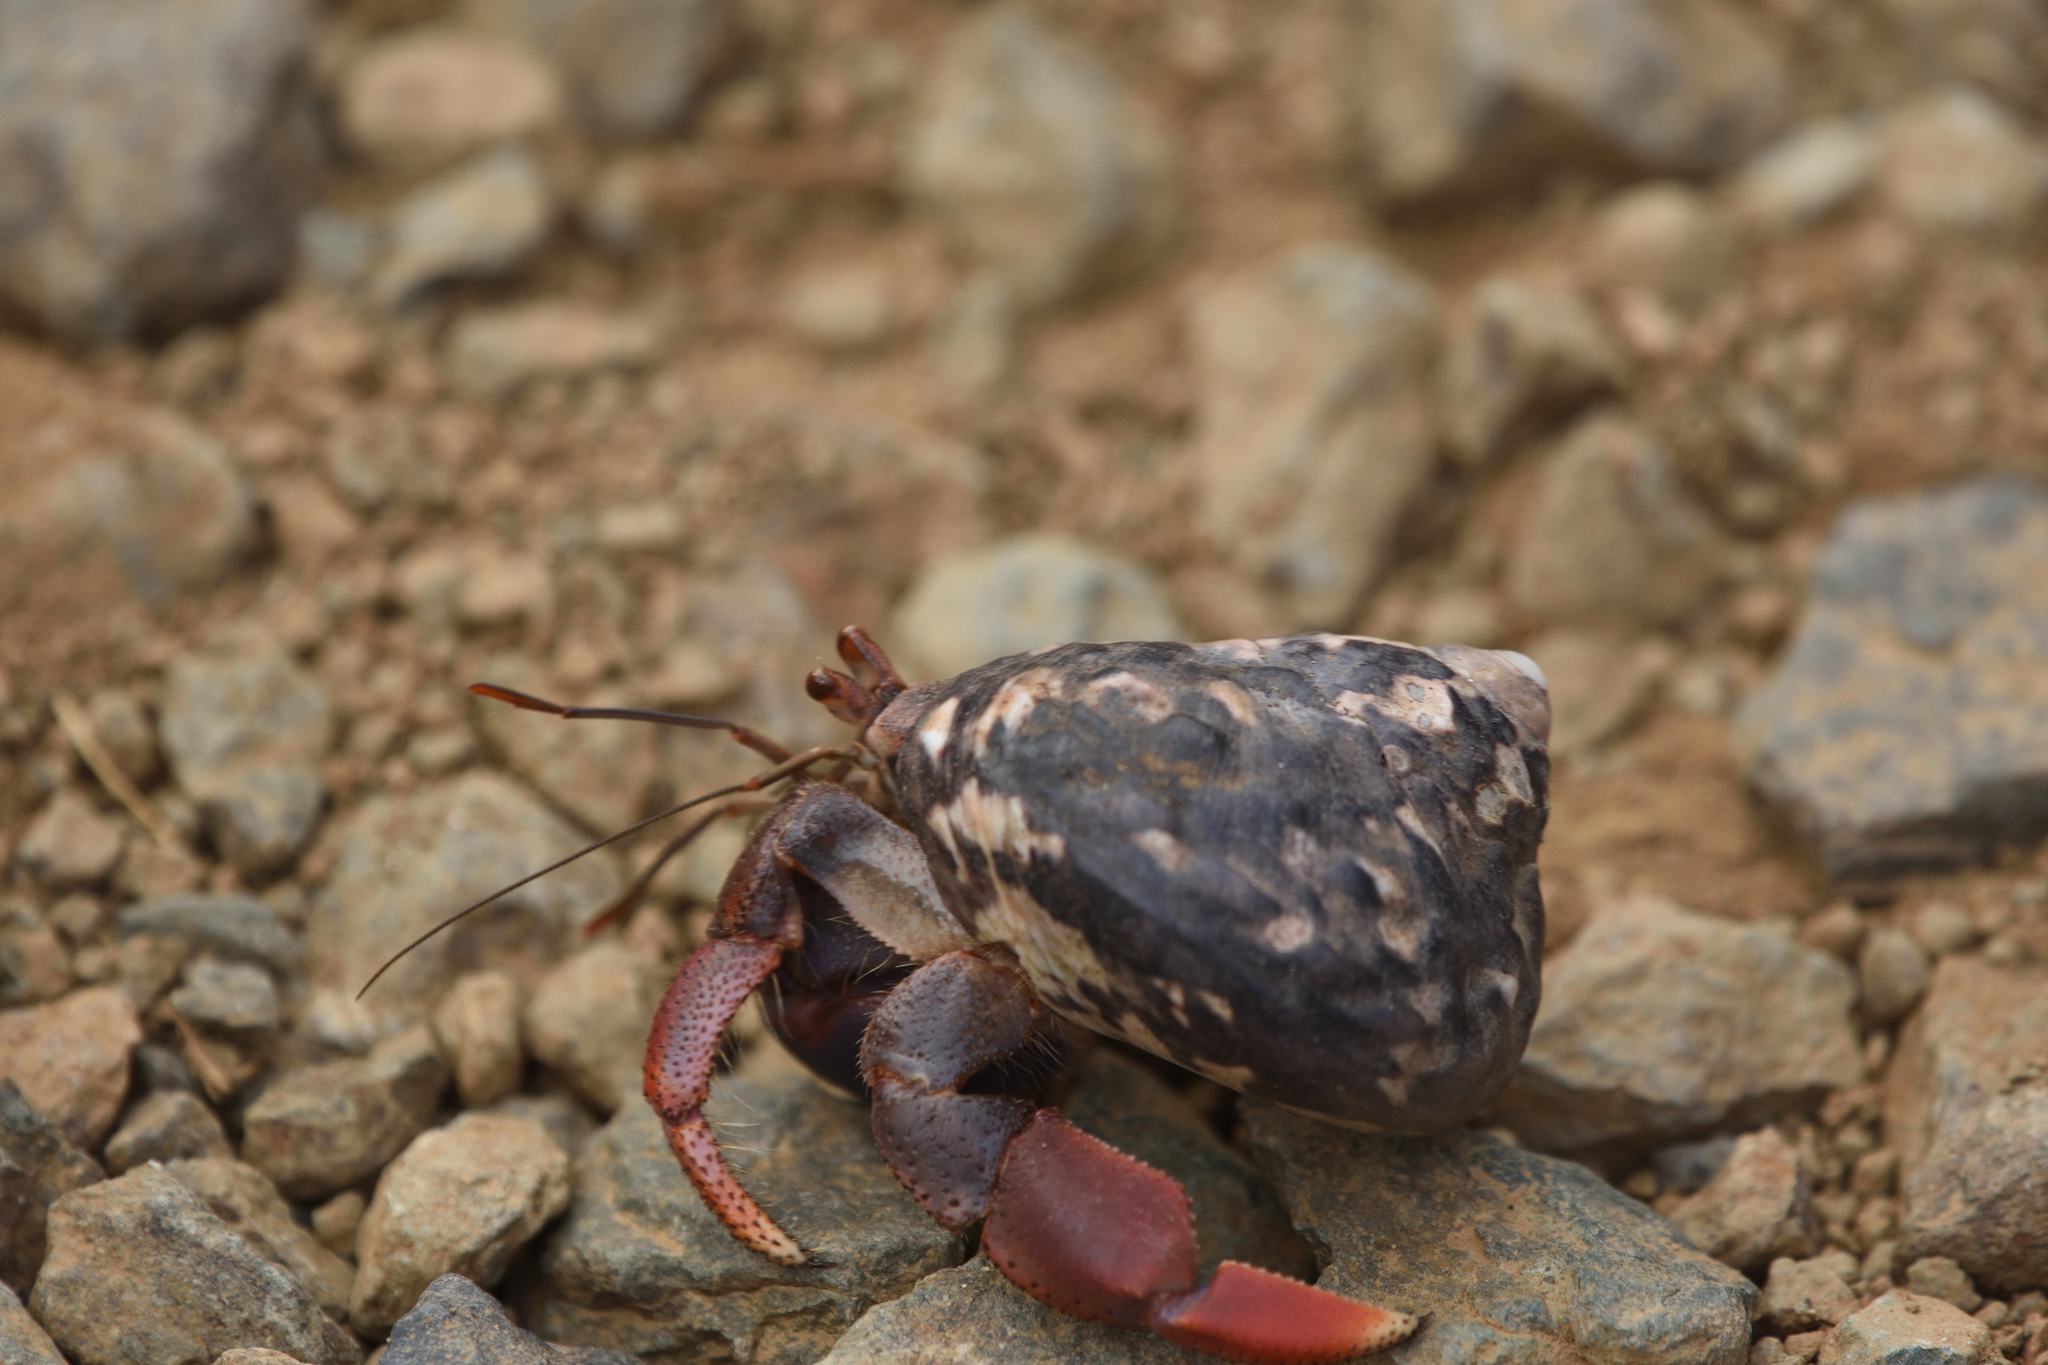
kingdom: Animalia
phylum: Arthropoda
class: Malacostraca
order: Decapoda
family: Coenobitidae
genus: Coenobita
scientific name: Coenobita clypeatus
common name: Caribbean hermit crab
